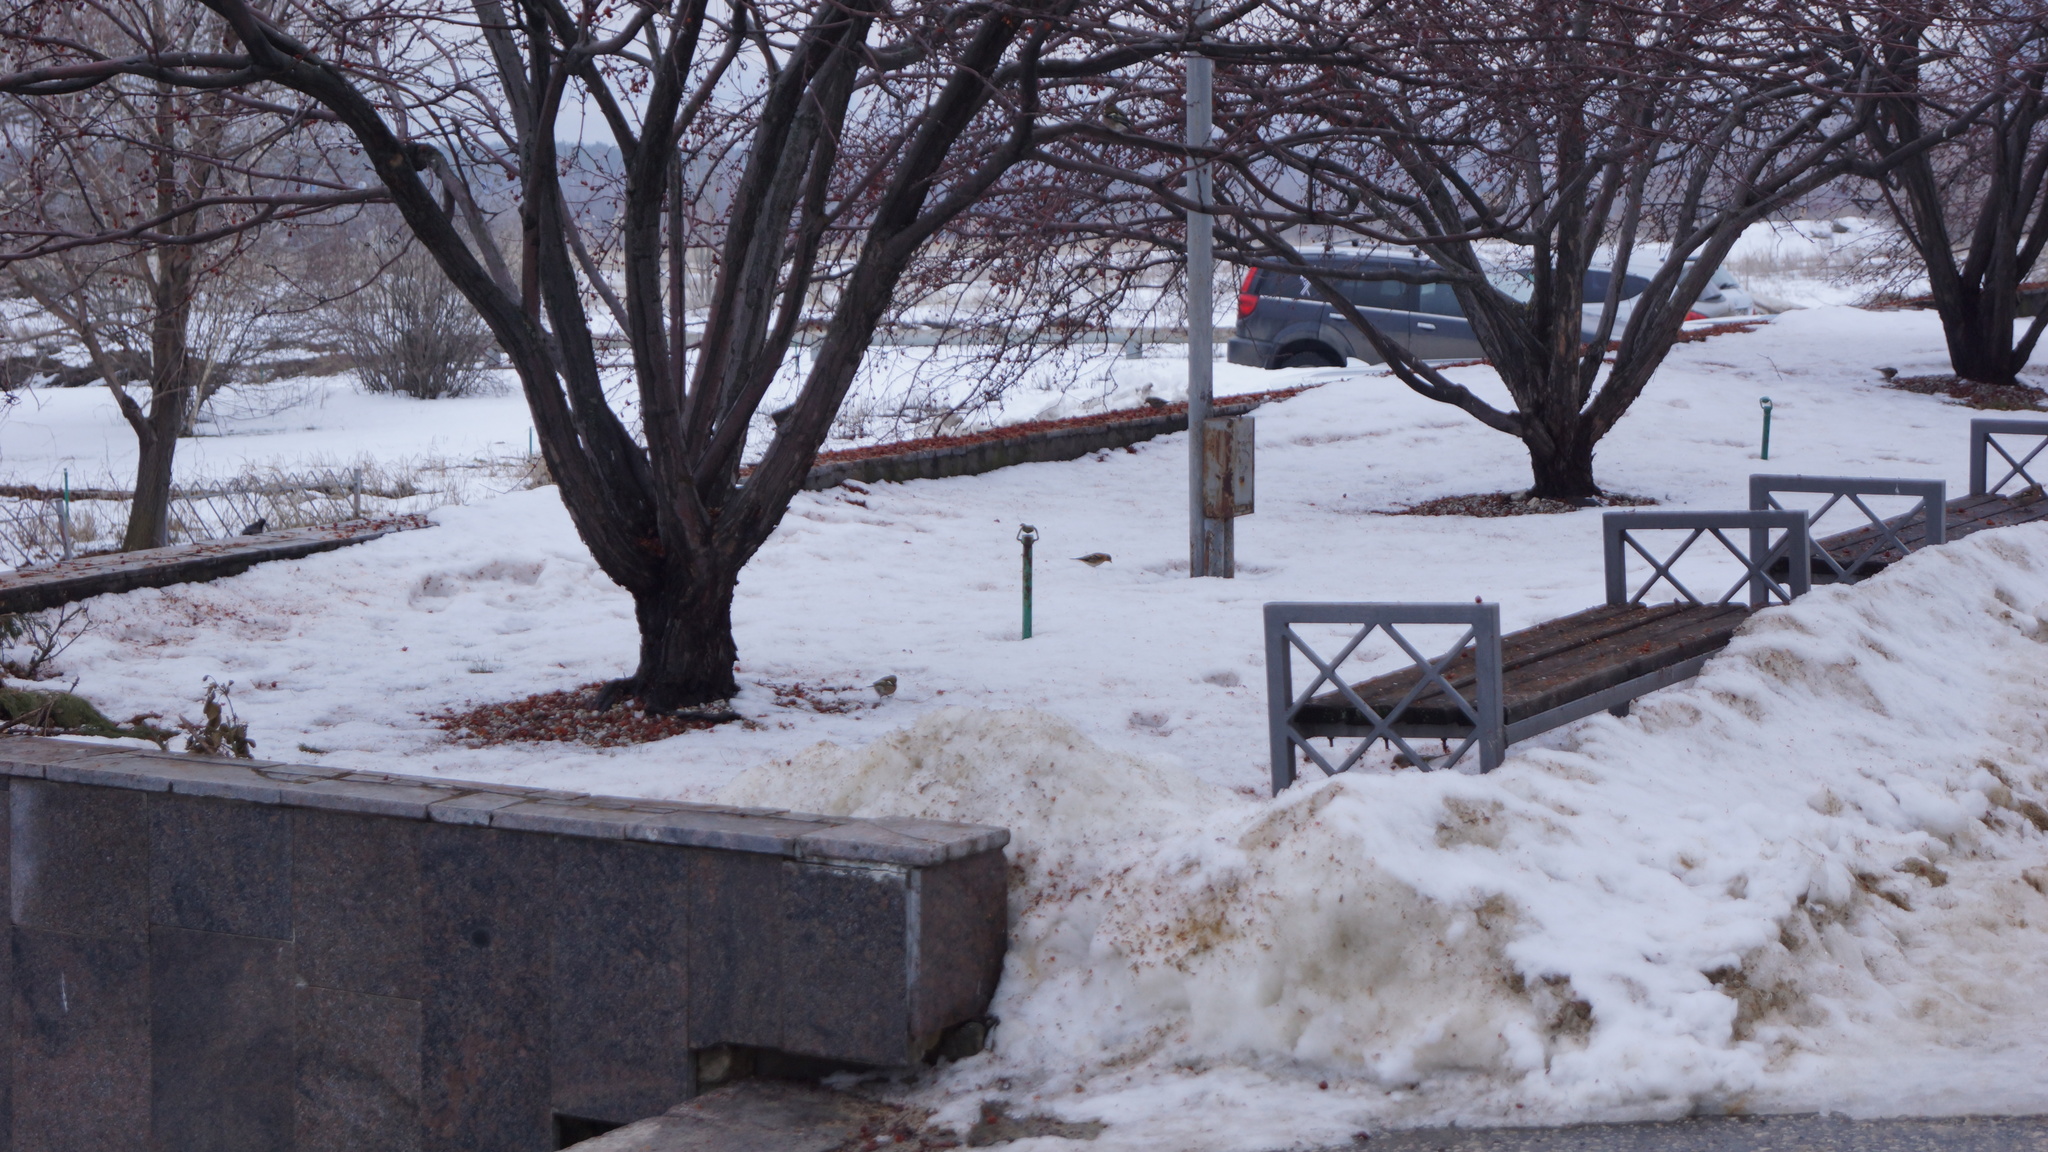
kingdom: Animalia
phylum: Chordata
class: Aves
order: Passeriformes
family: Fringillidae
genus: Fringilla
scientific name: Fringilla coelebs
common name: Common chaffinch
